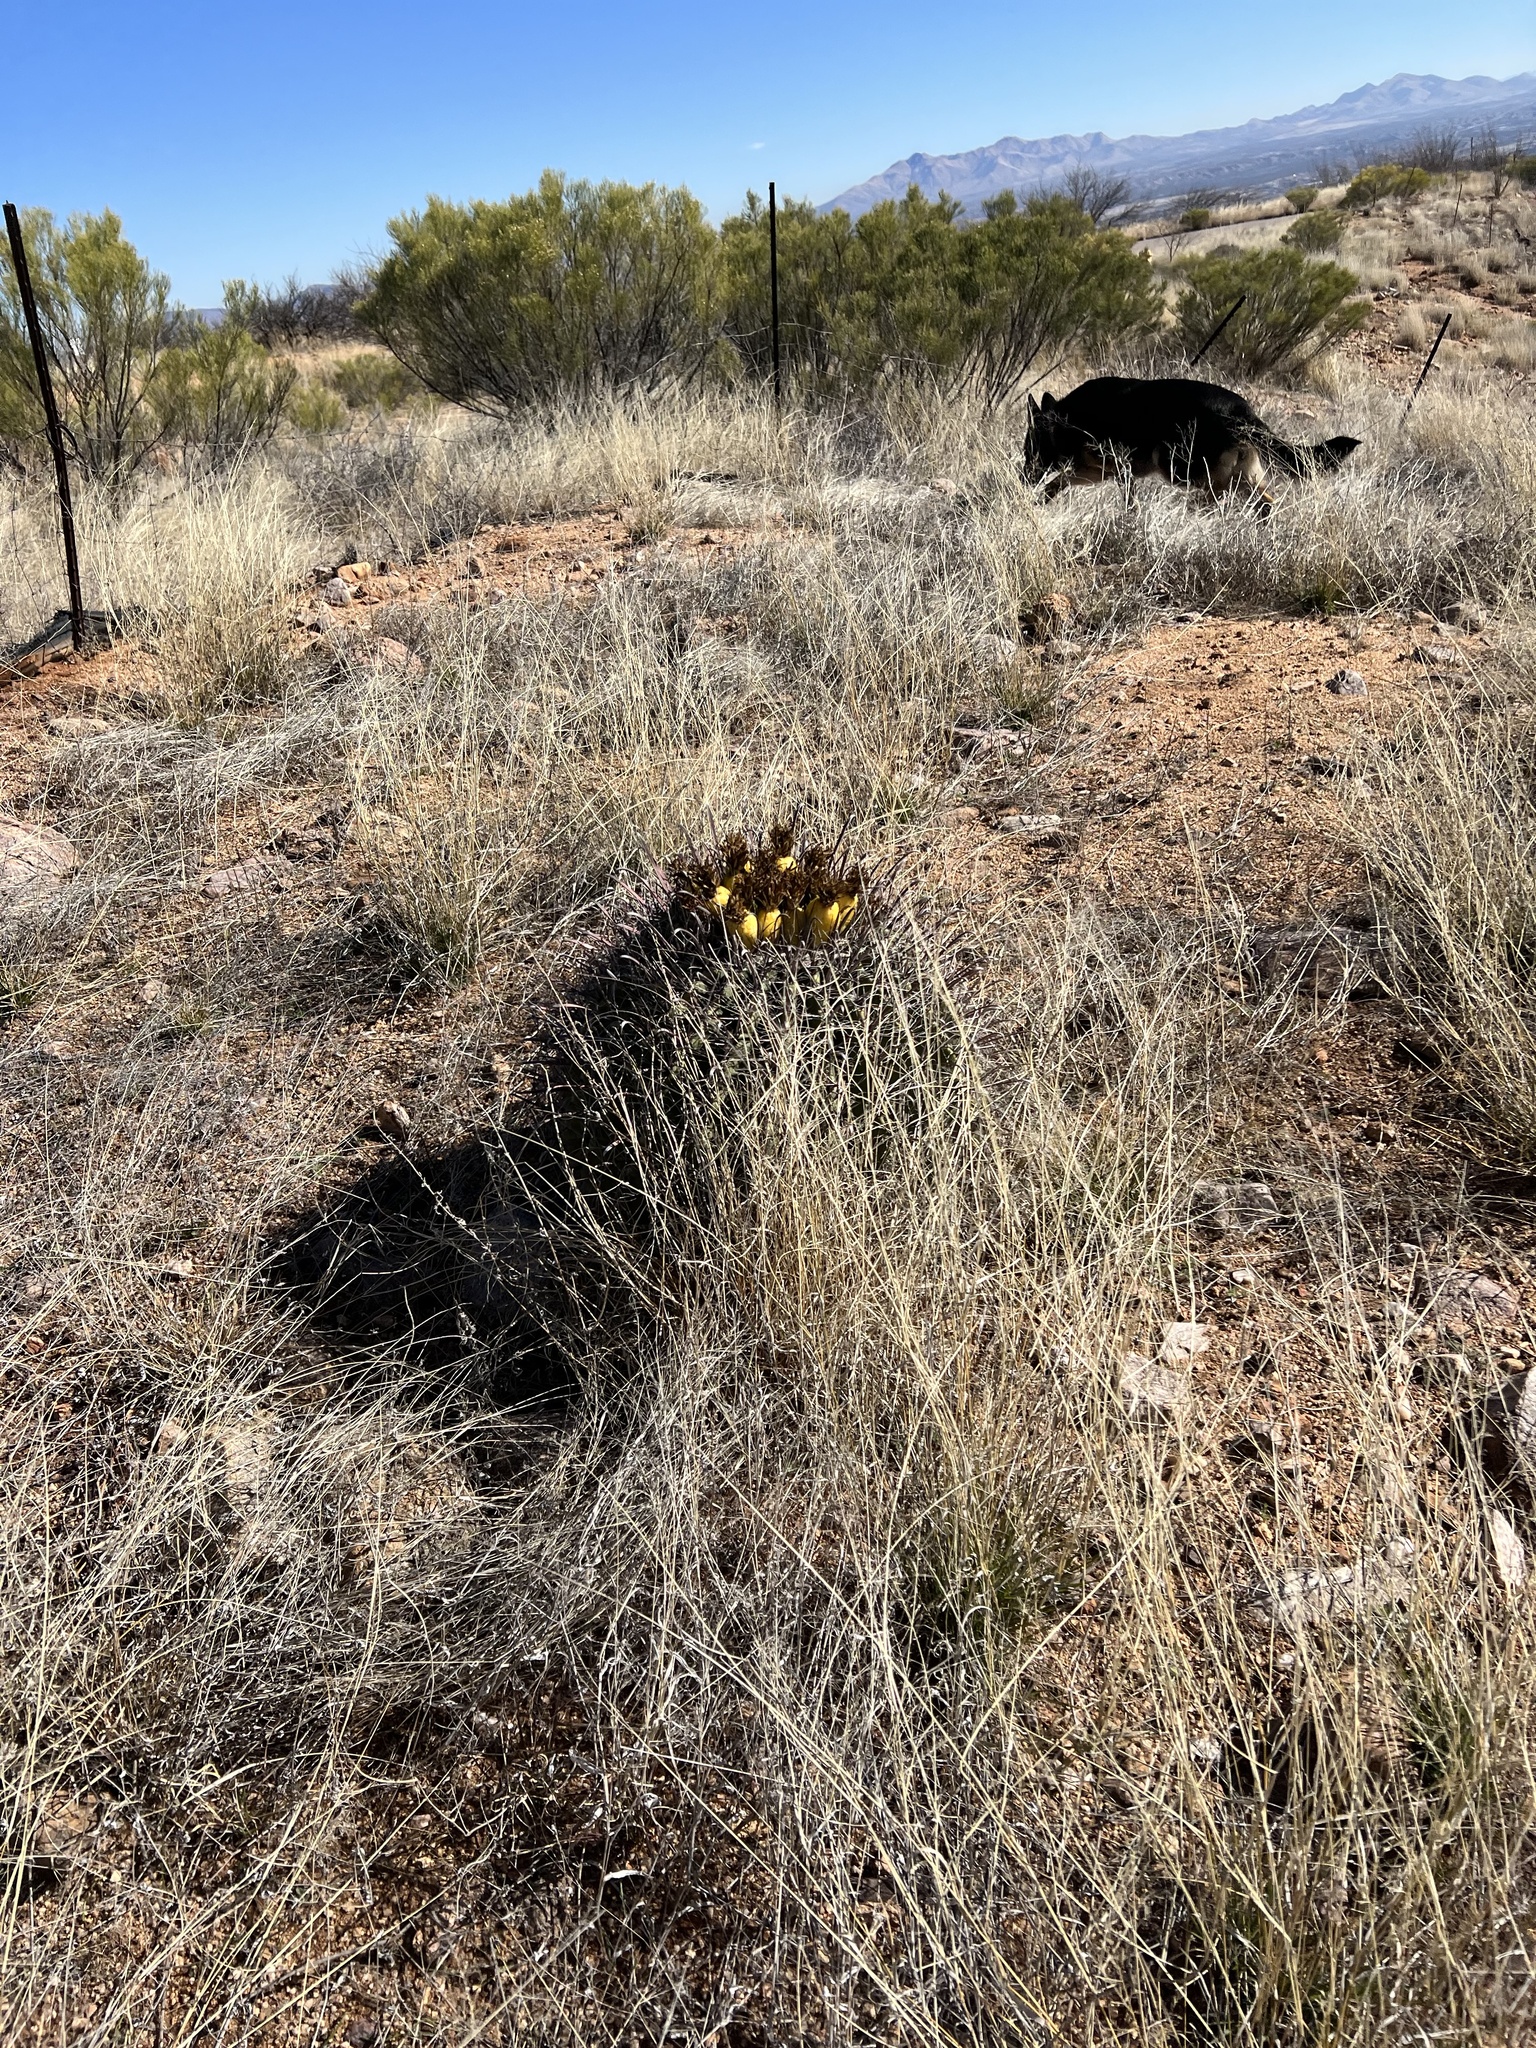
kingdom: Plantae
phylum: Tracheophyta
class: Magnoliopsida
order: Caryophyllales
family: Cactaceae
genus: Ferocactus
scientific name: Ferocactus wislizeni
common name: Candy barrel cactus
